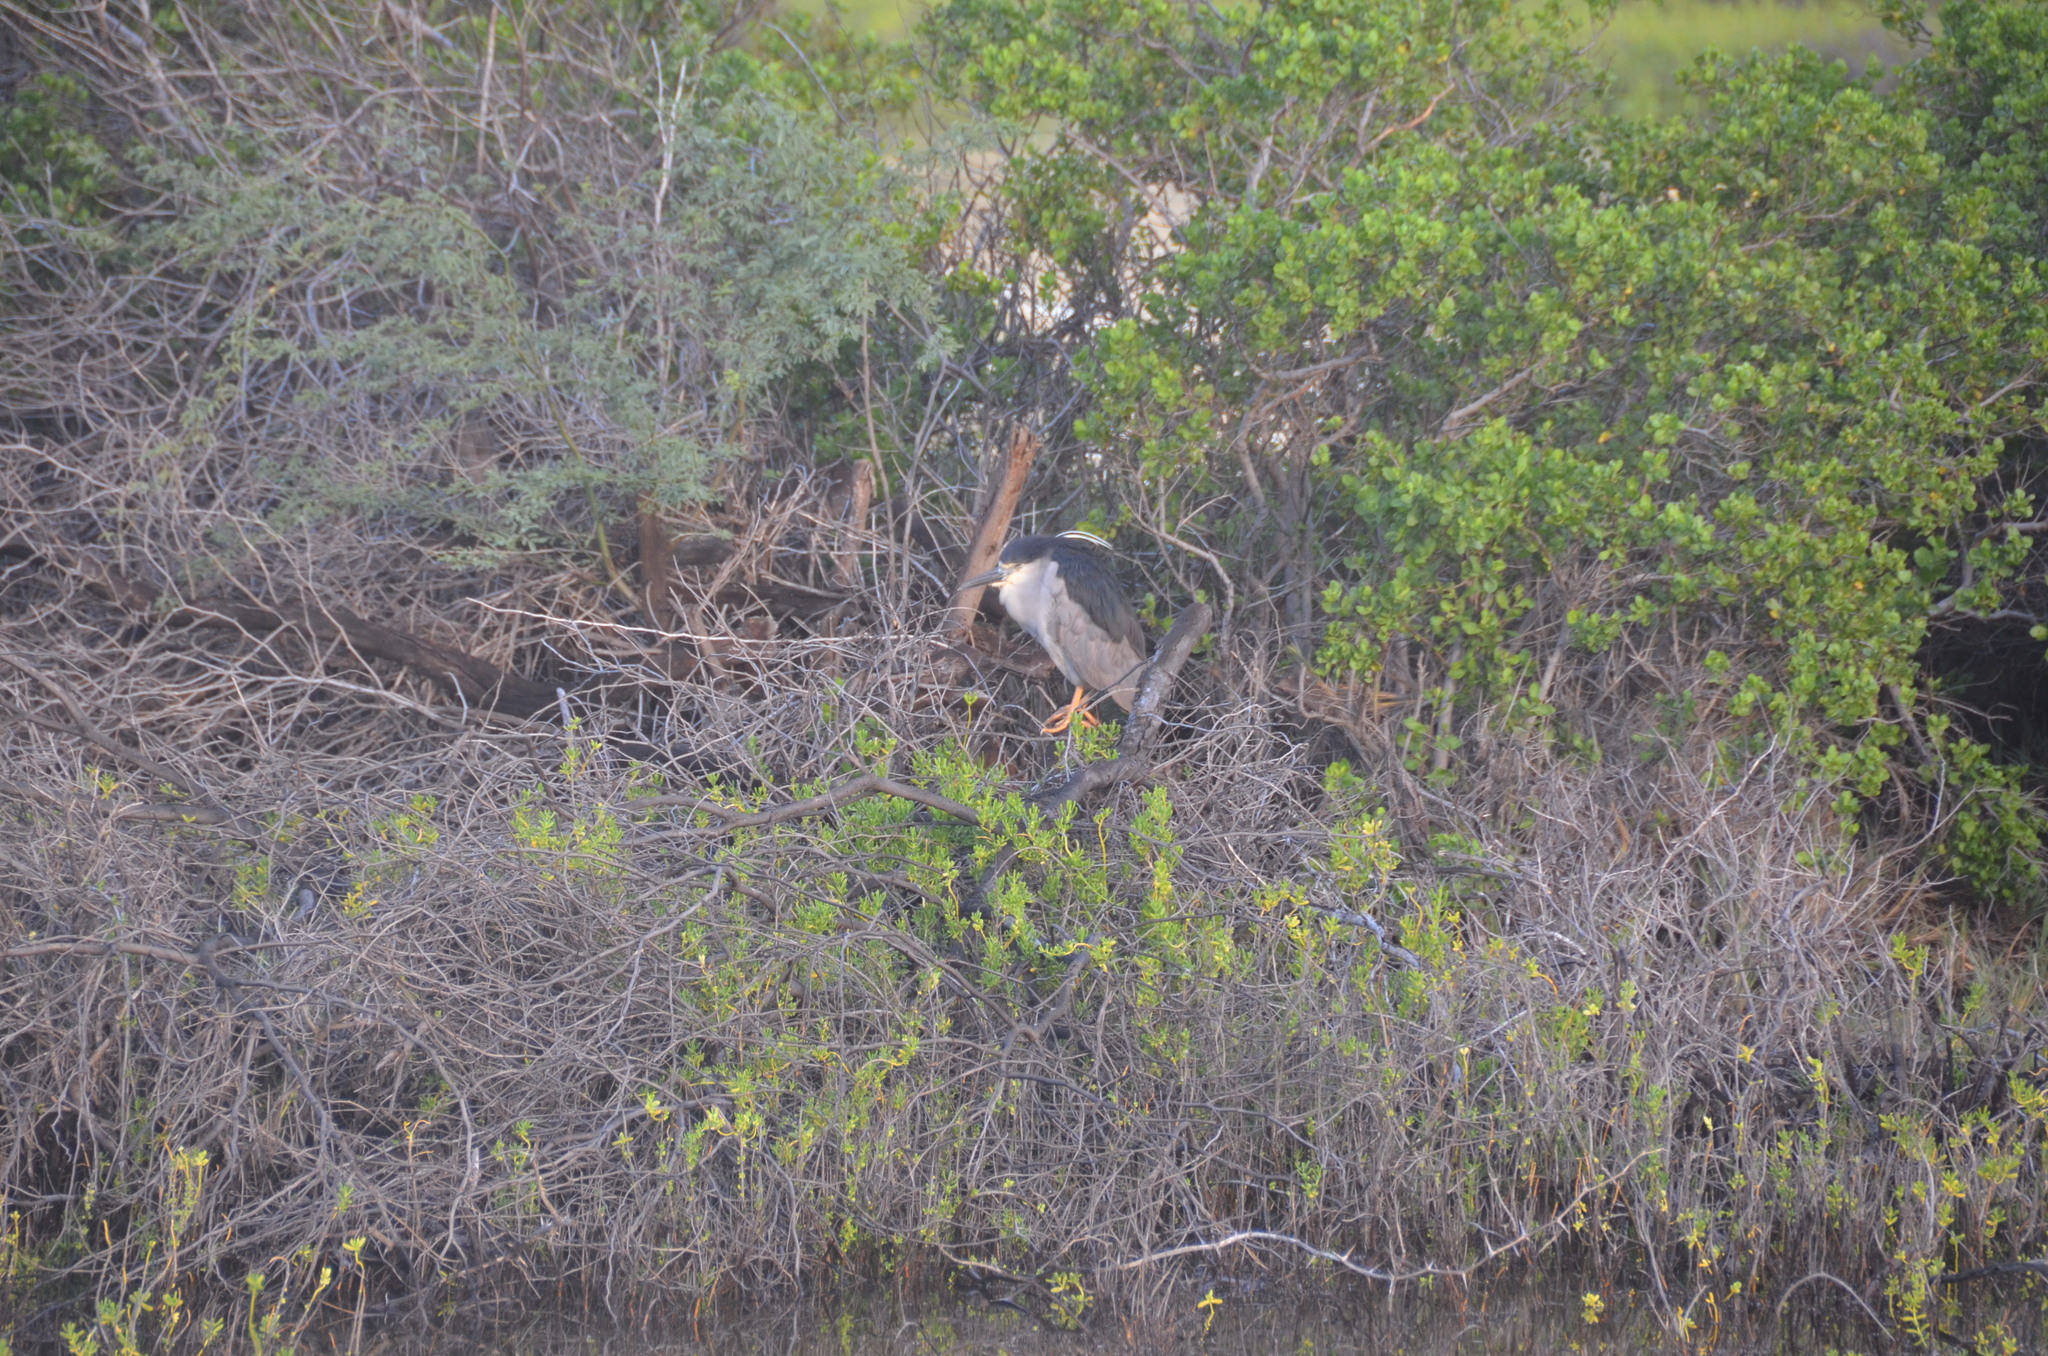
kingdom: Animalia
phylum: Chordata
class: Aves
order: Pelecaniformes
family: Ardeidae
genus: Nycticorax
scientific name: Nycticorax nycticorax
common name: Black-crowned night heron
